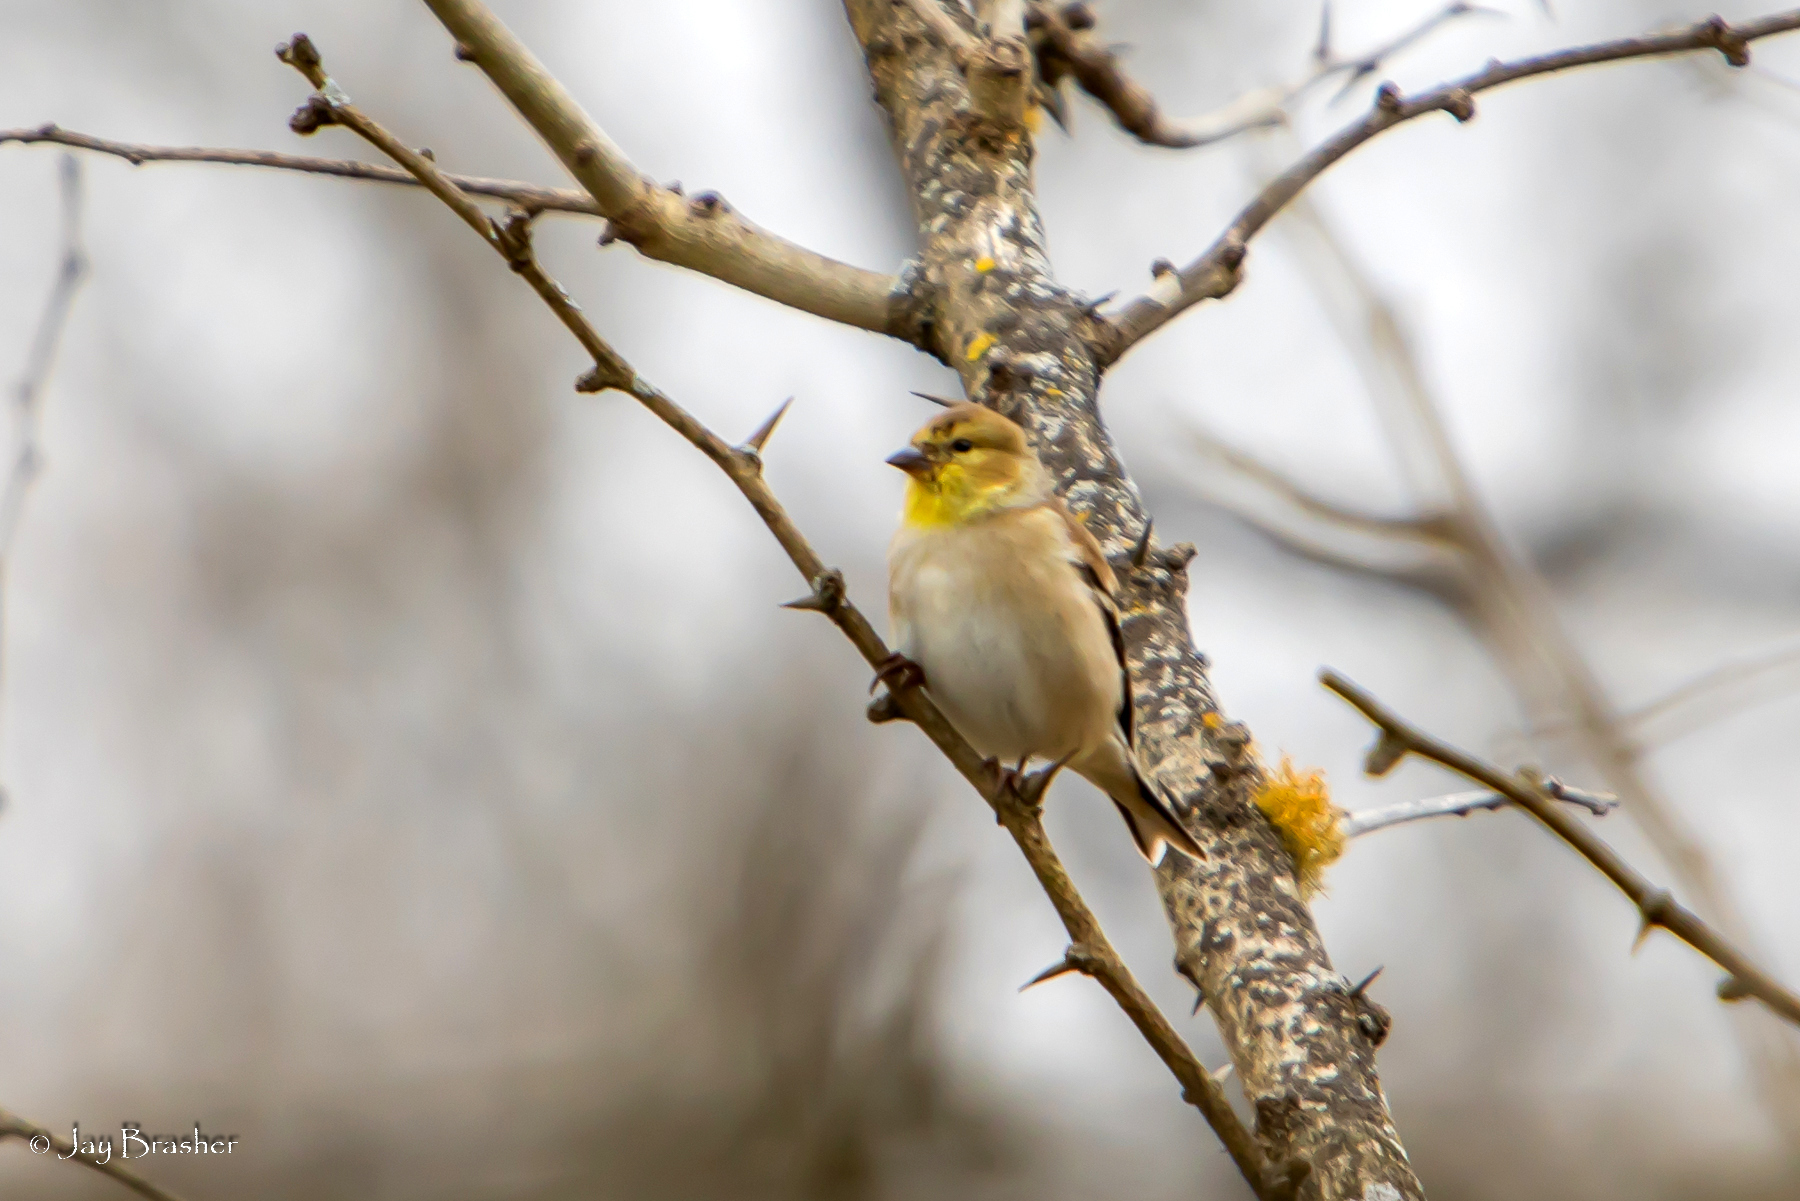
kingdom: Animalia
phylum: Chordata
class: Aves
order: Passeriformes
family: Fringillidae
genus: Spinus
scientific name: Spinus tristis
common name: American goldfinch
